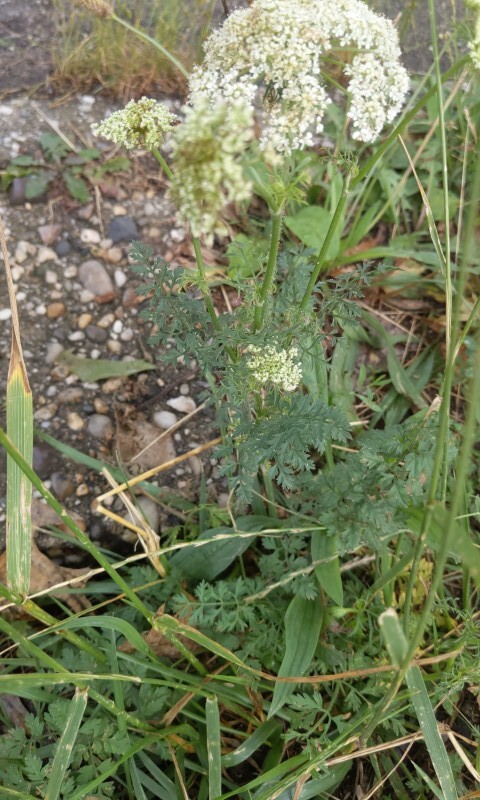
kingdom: Plantae
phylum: Tracheophyta
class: Magnoliopsida
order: Apiales
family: Apiaceae
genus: Daucus
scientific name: Daucus carota
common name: Wild carrot
